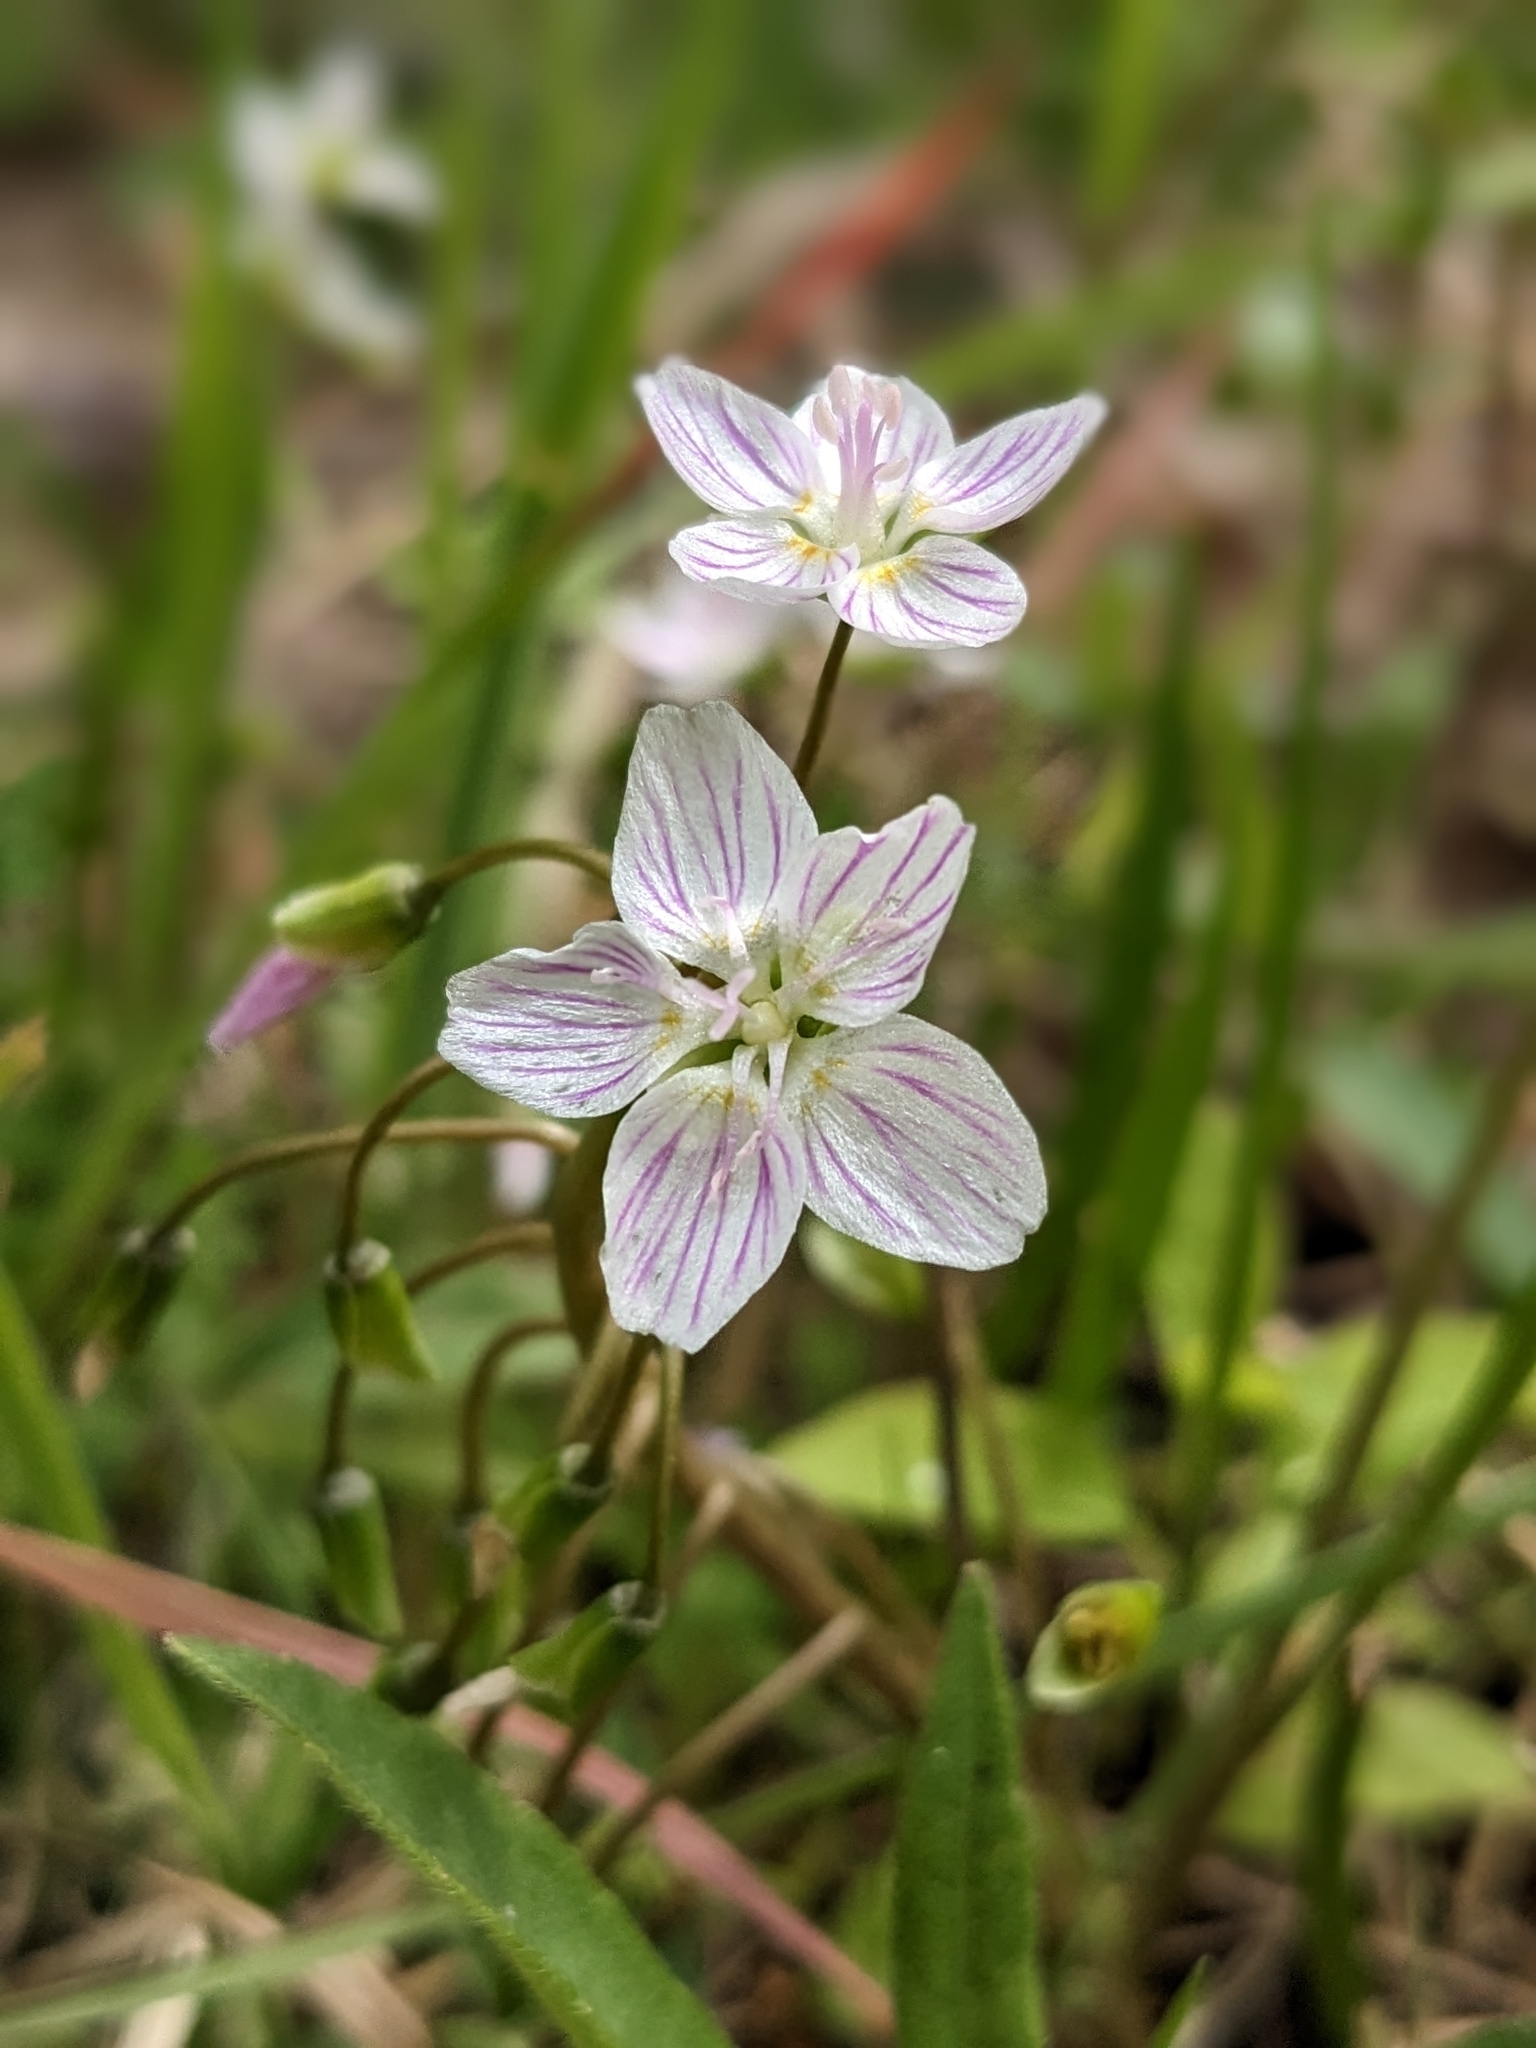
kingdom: Plantae
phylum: Tracheophyta
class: Magnoliopsida
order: Caryophyllales
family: Montiaceae
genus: Claytonia
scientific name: Claytonia virginica
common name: Virginia springbeauty
